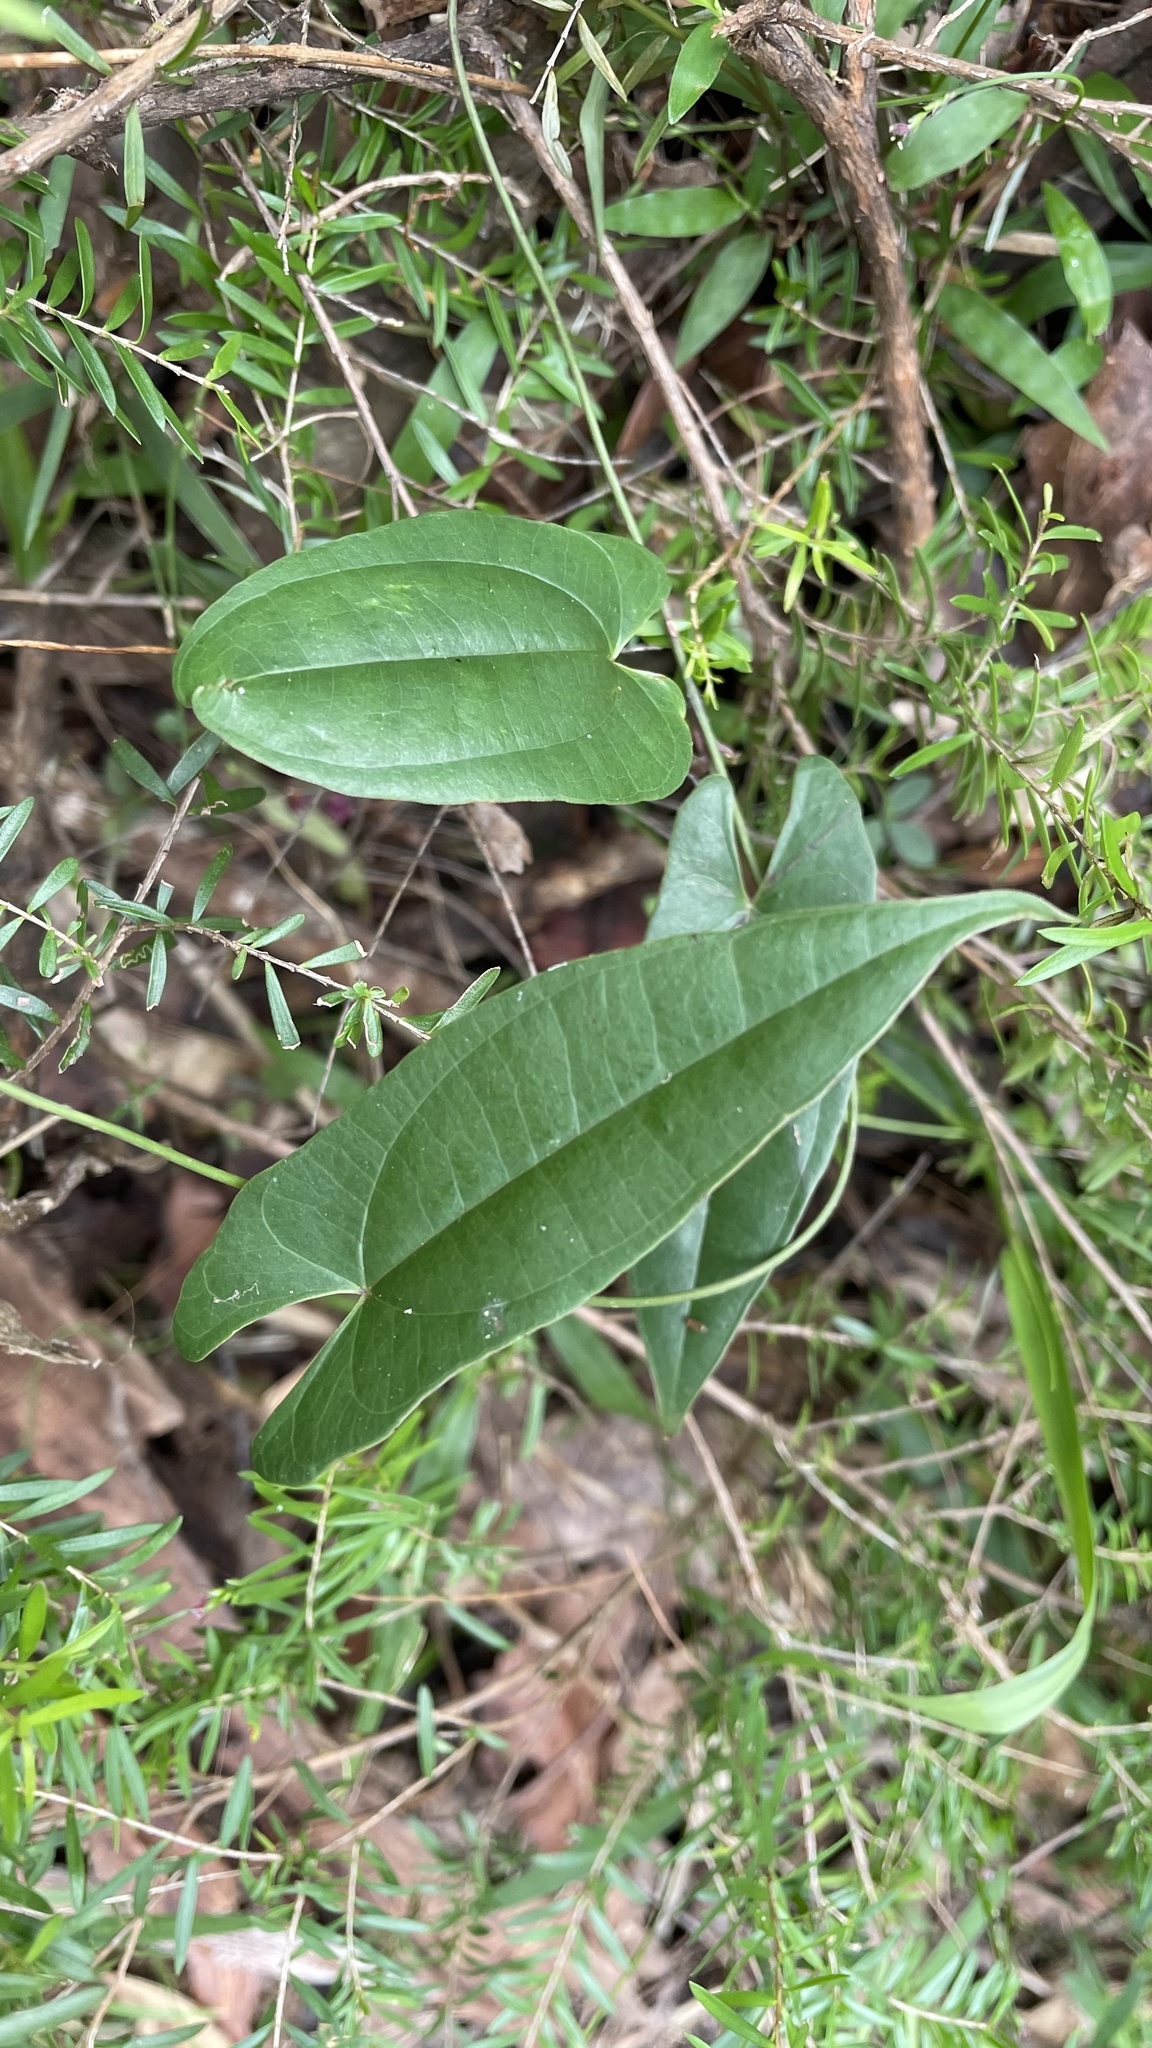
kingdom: Plantae
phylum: Tracheophyta
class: Liliopsida
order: Dioscoreales
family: Dioscoreaceae
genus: Dioscorea
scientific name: Dioscorea transversa
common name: Long yam
